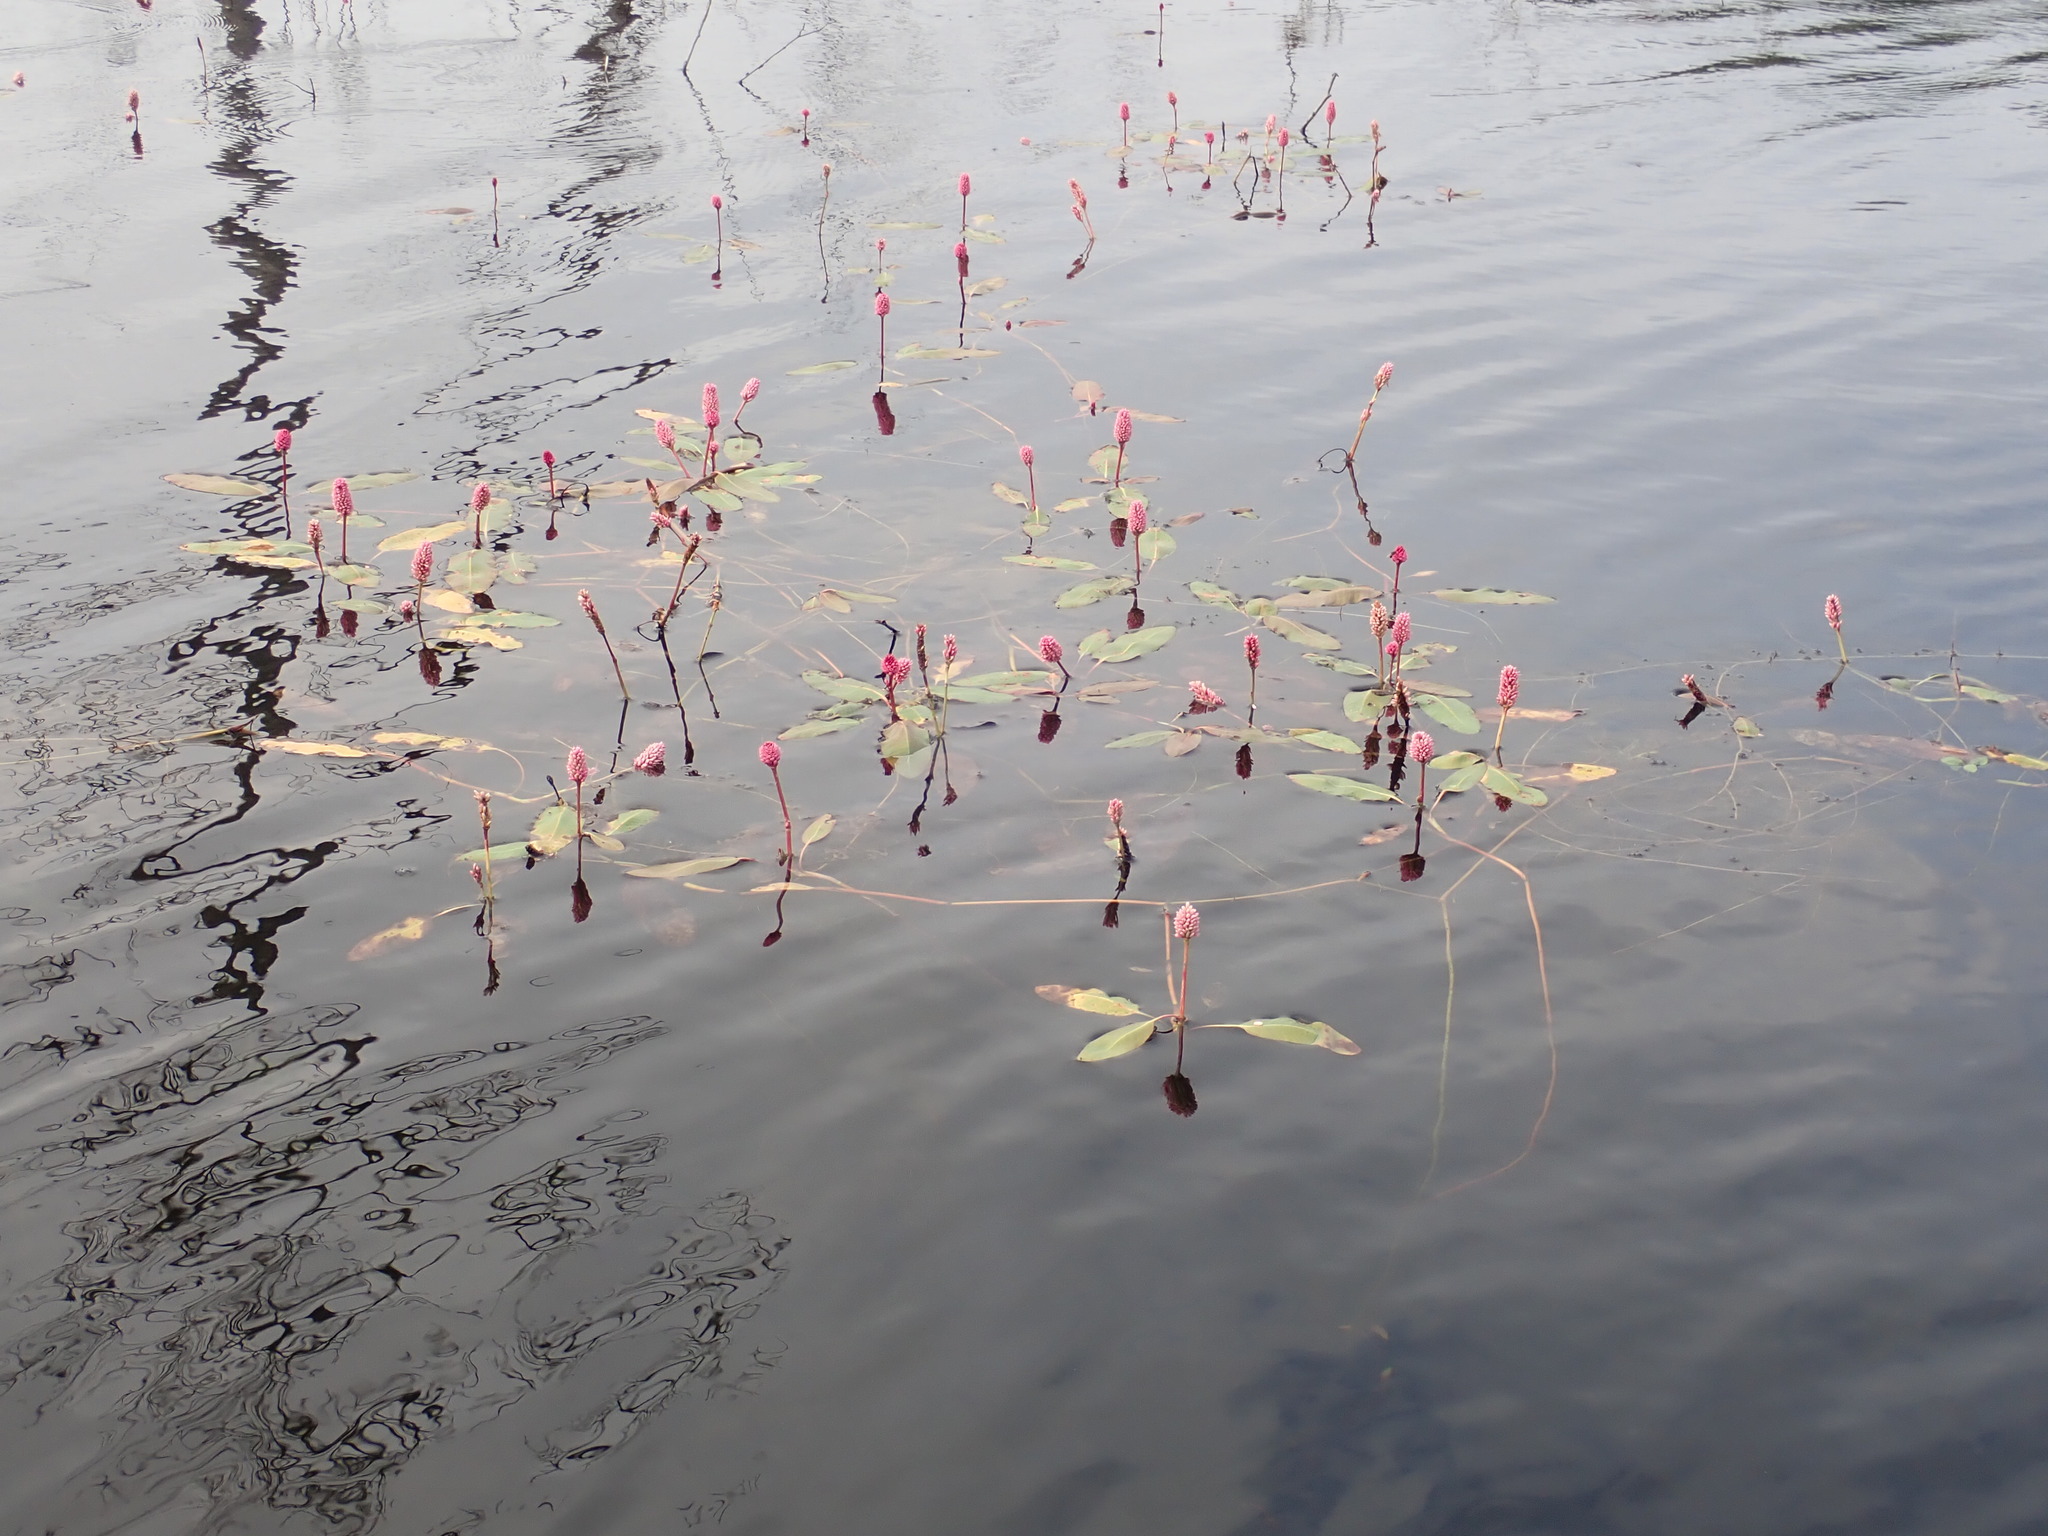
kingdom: Plantae
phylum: Tracheophyta
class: Magnoliopsida
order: Caryophyllales
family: Polygonaceae
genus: Persicaria
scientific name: Persicaria amphibia
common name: Amphibious bistort
